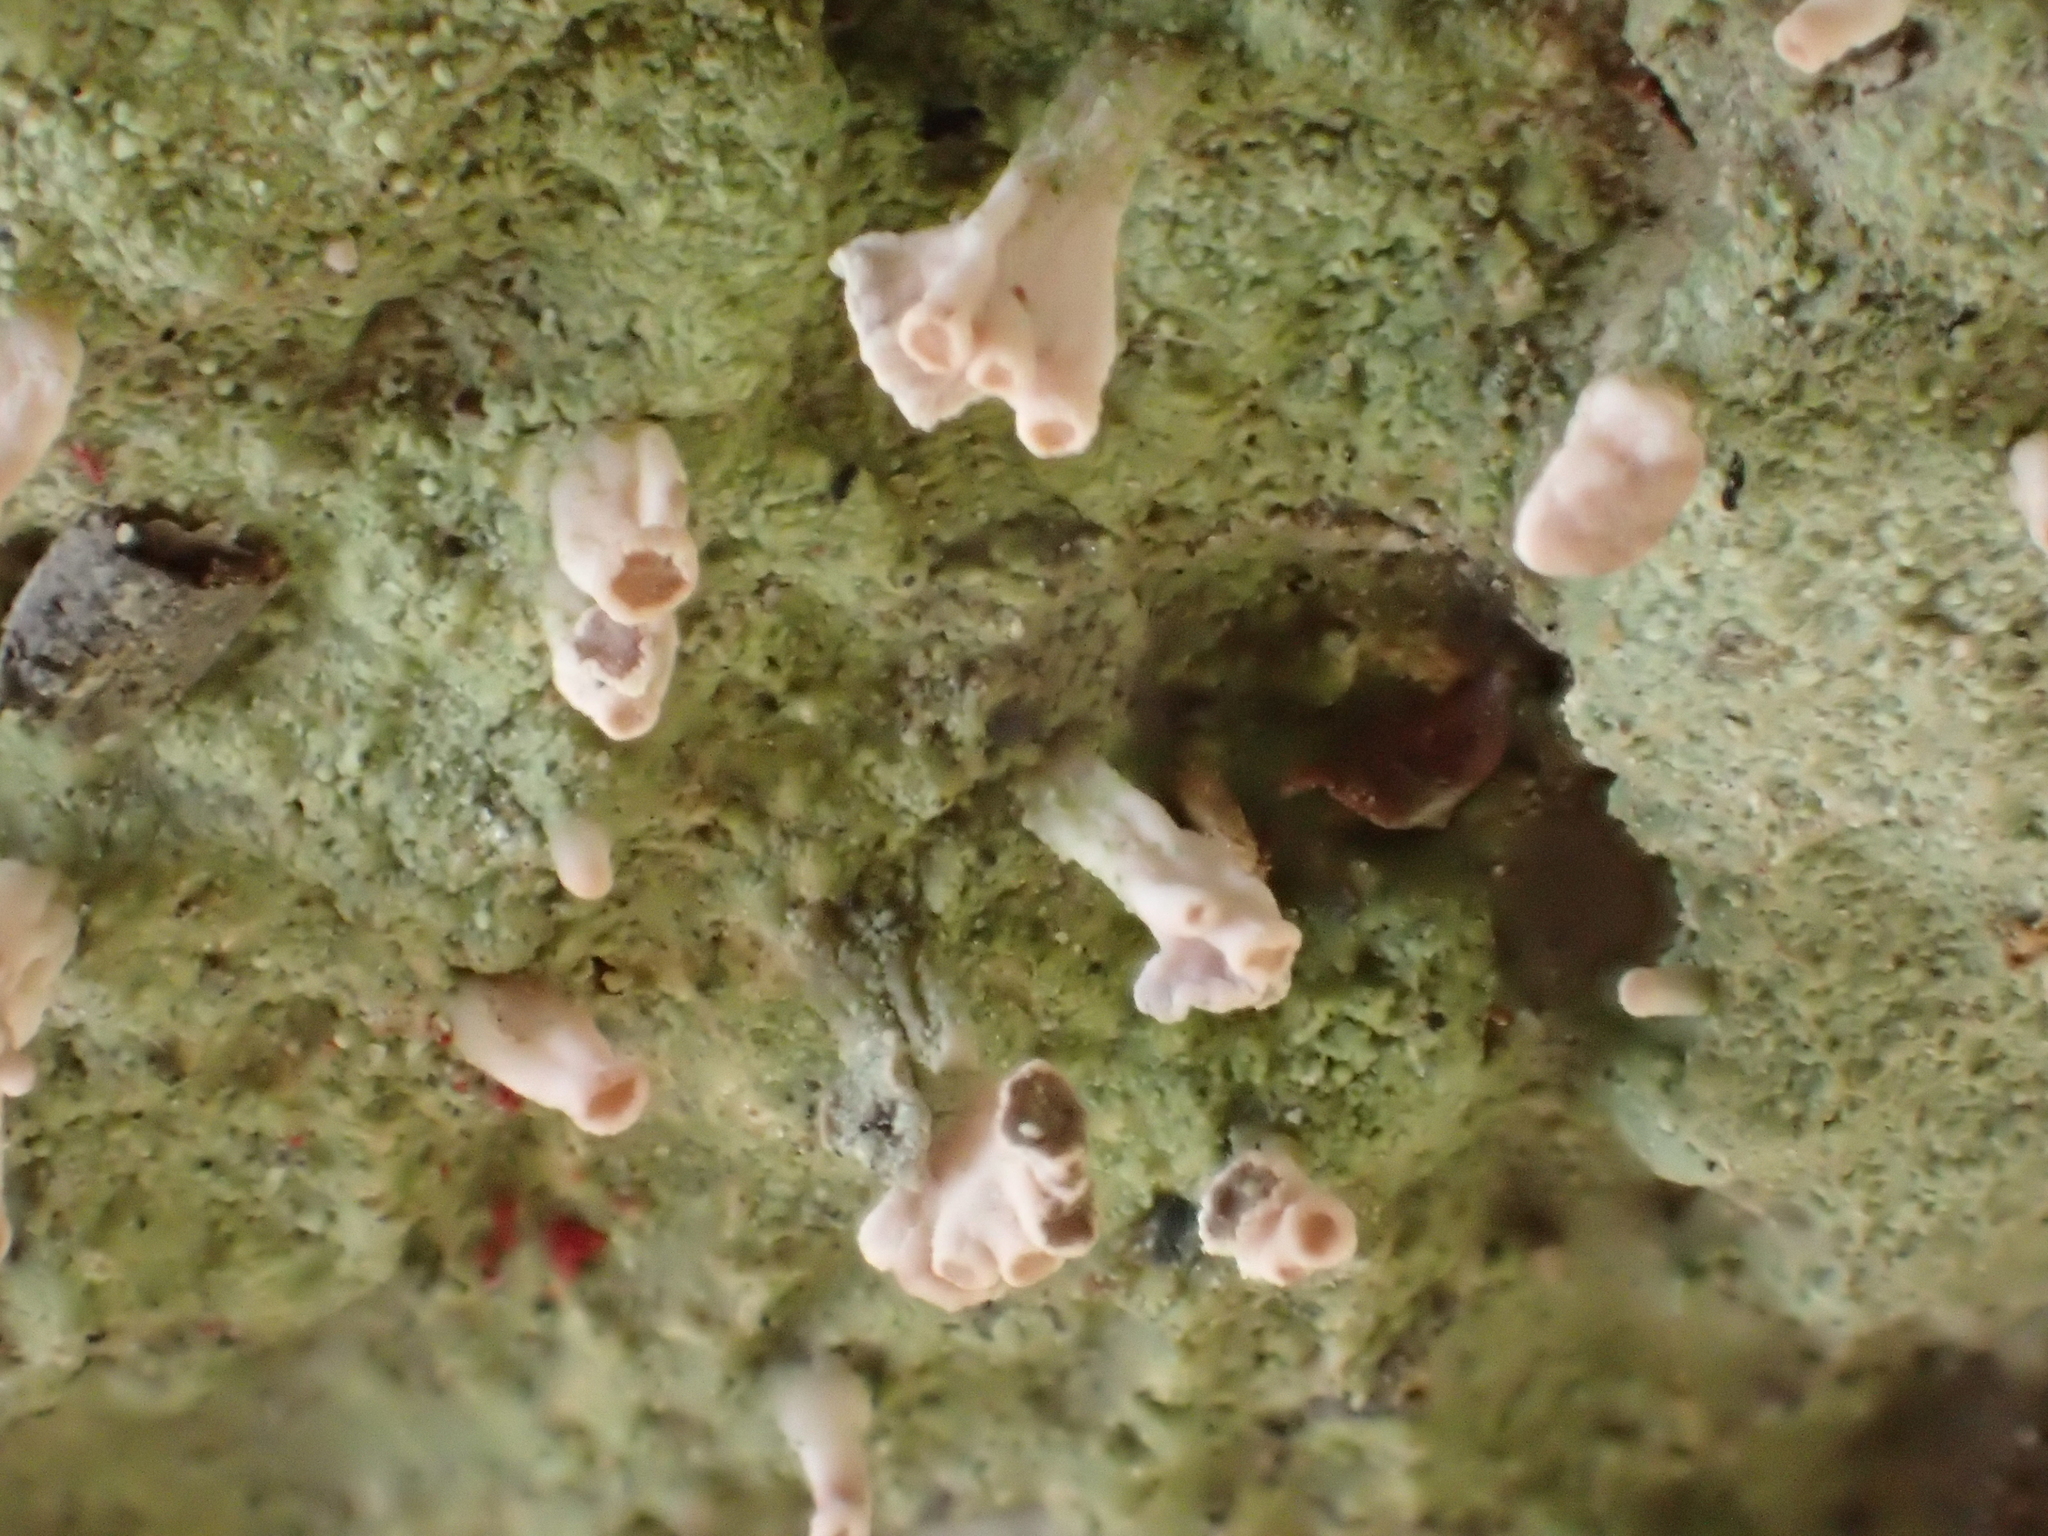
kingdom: Fungi
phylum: Ascomycota
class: Lecanoromycetes
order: Baeomycetales
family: Baeomycetaceae
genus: Baeomyces
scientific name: Baeomyces heteromorphus
